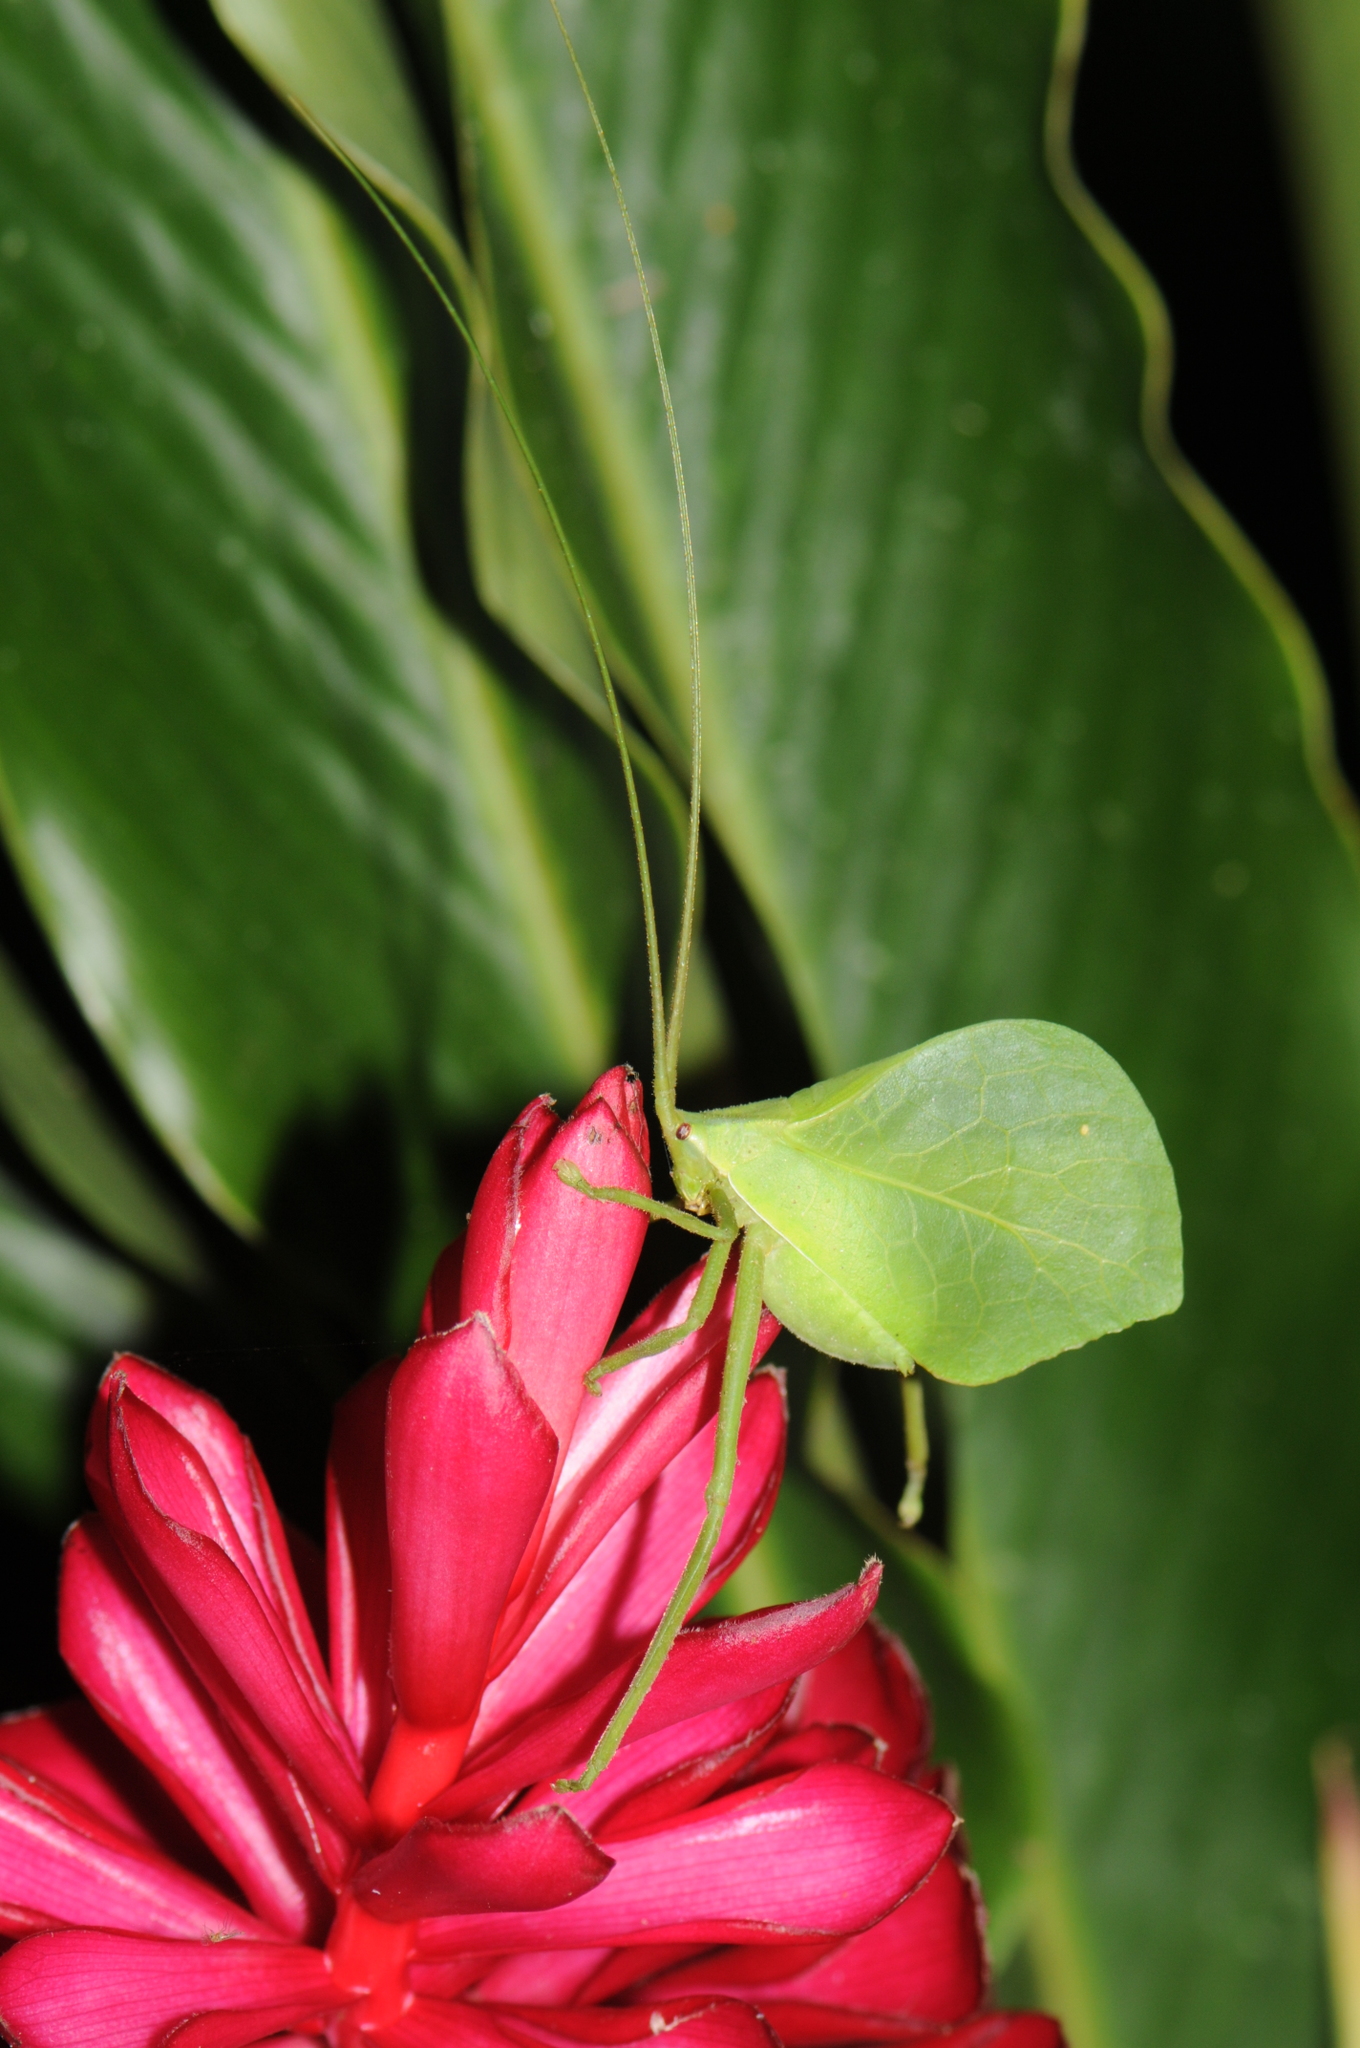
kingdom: Animalia
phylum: Arthropoda
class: Insecta
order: Orthoptera
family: Tettigoniidae
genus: Roxelana
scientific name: Roxelana crassicornis
